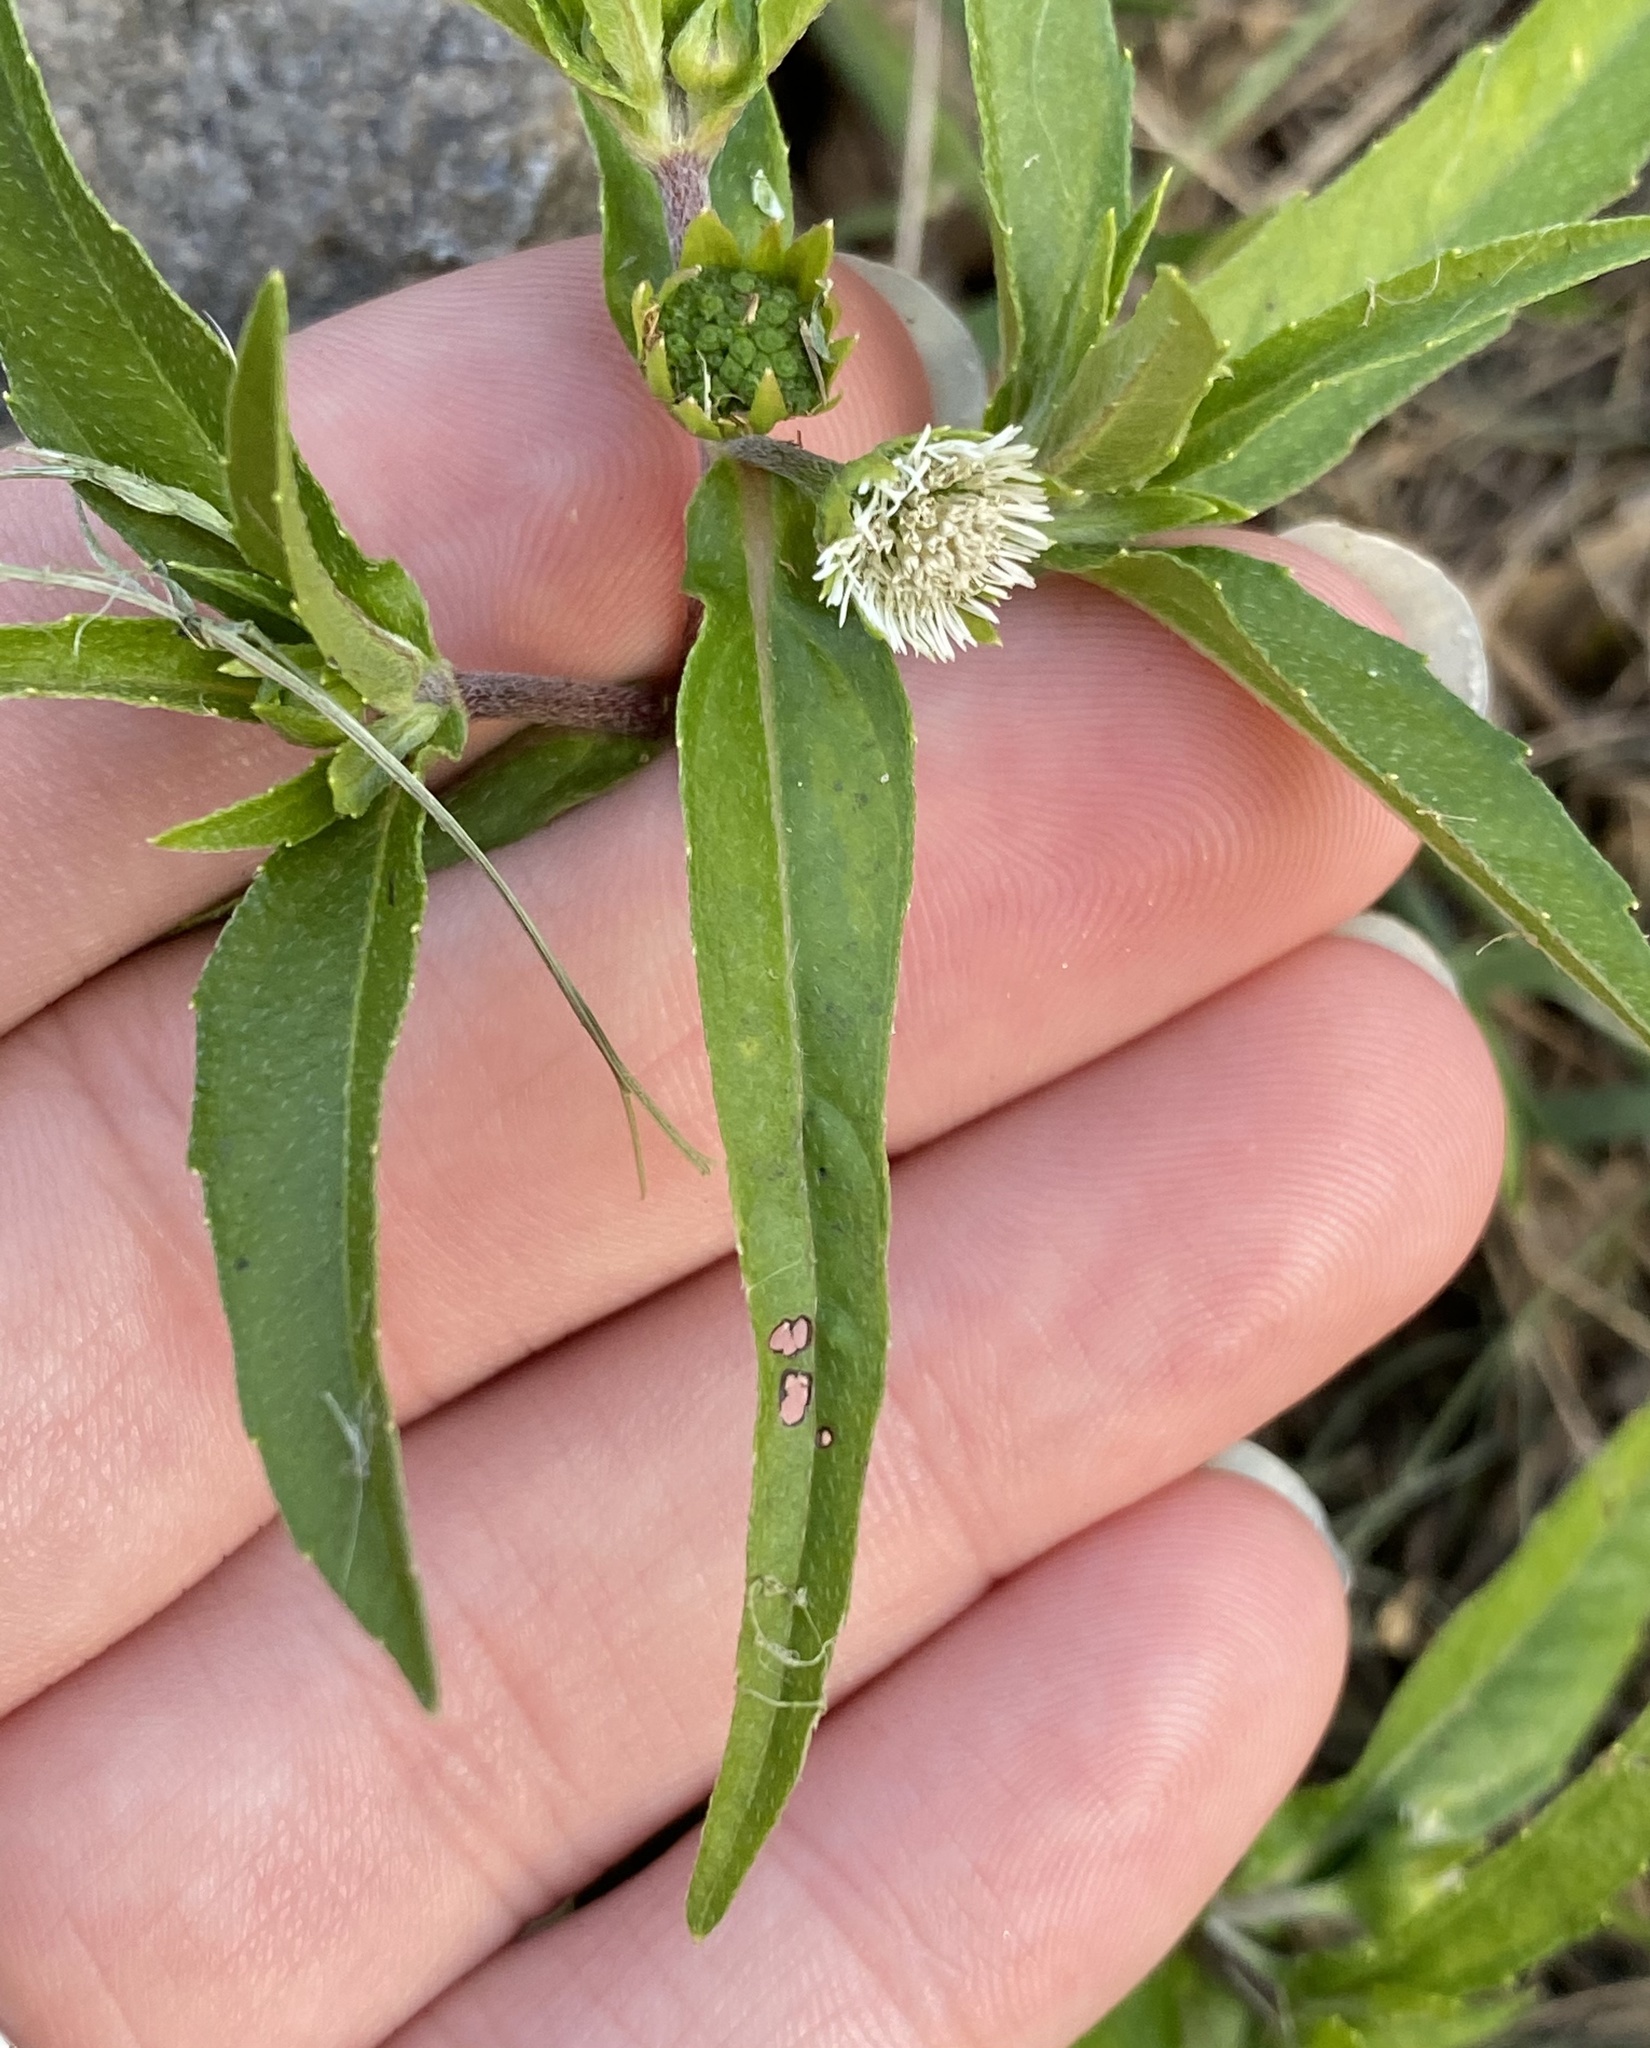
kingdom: Plantae
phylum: Tracheophyta
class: Magnoliopsida
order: Asterales
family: Asteraceae
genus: Eclipta
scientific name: Eclipta prostrata
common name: False daisy
